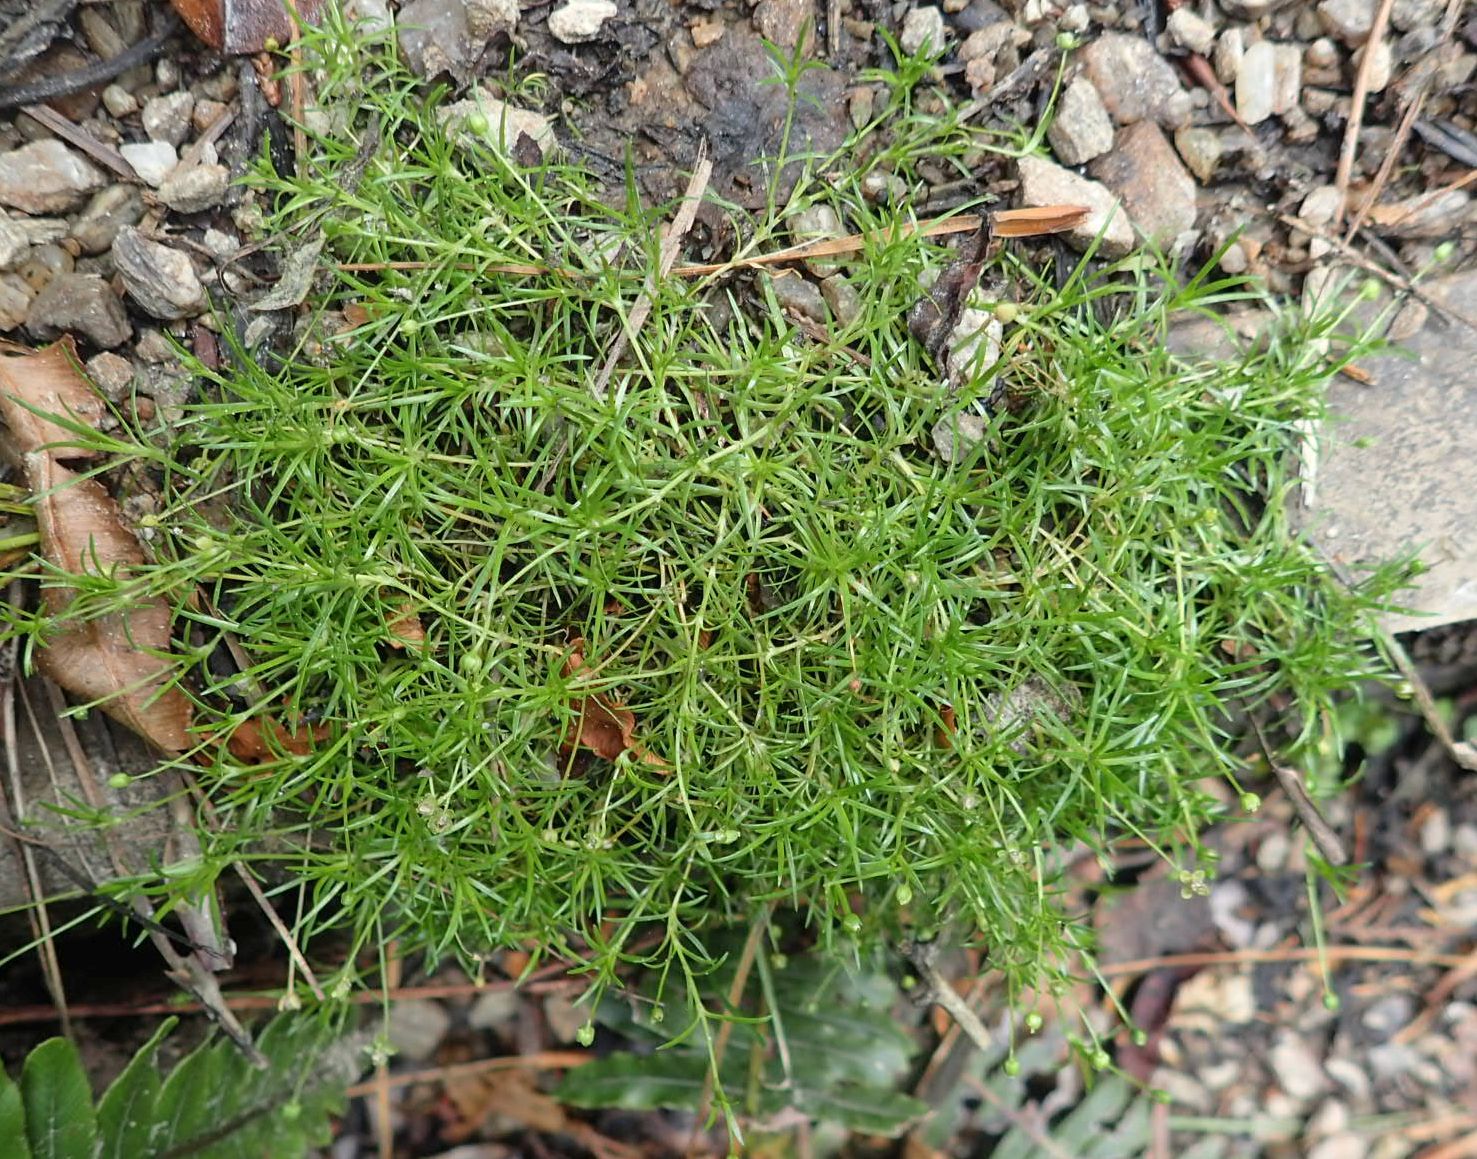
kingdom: Plantae
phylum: Tracheophyta
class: Magnoliopsida
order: Caryophyllales
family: Caryophyllaceae
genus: Sagina
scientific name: Sagina procumbens
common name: Procumbent pearlwort
